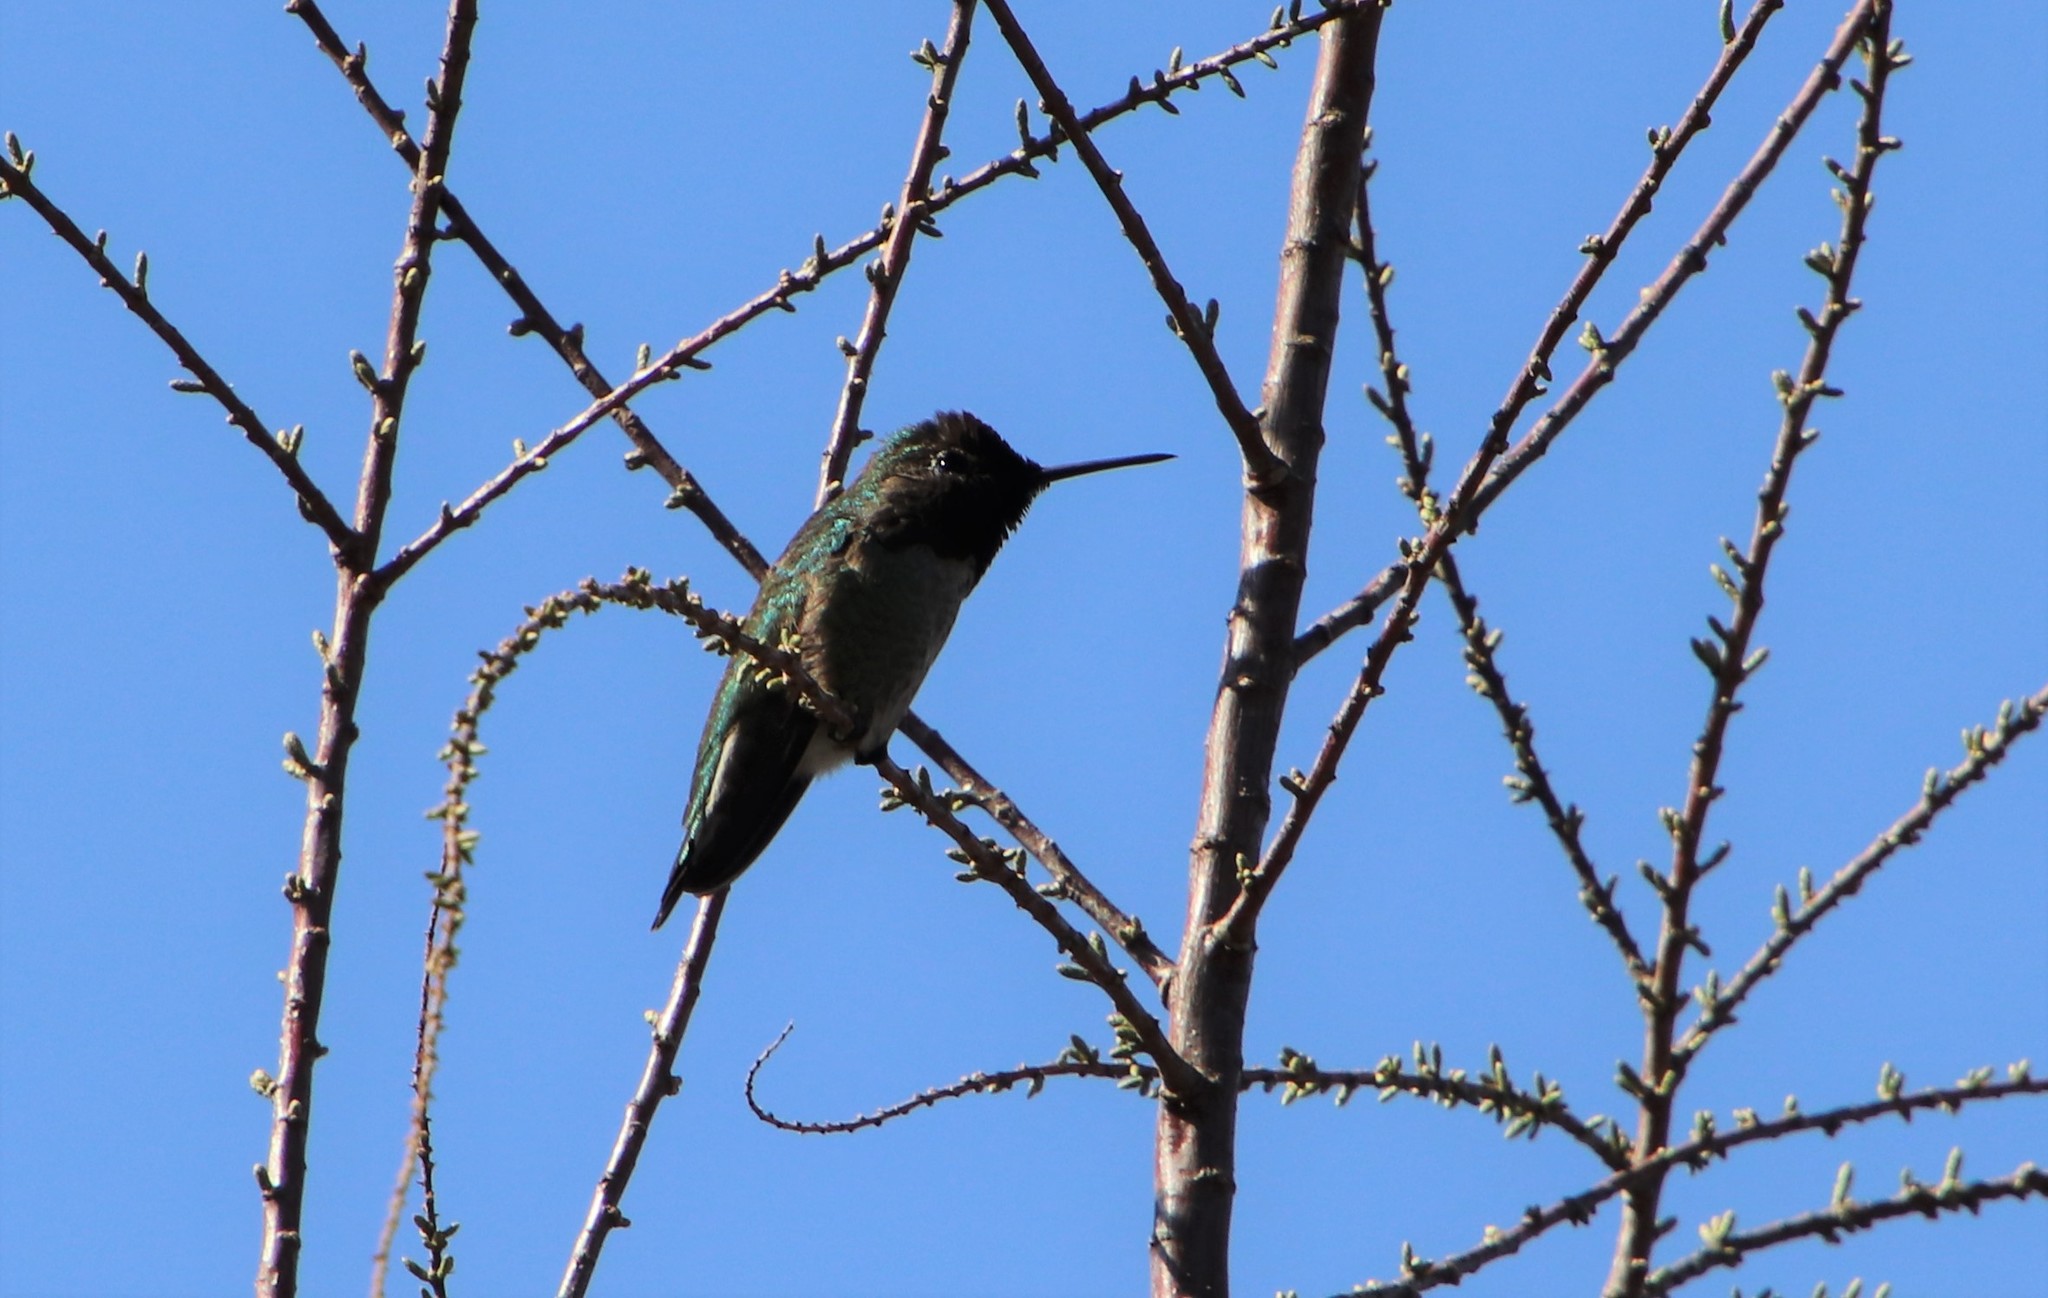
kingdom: Animalia
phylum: Chordata
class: Aves
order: Apodiformes
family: Trochilidae
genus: Calypte
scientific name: Calypte anna
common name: Anna's hummingbird
